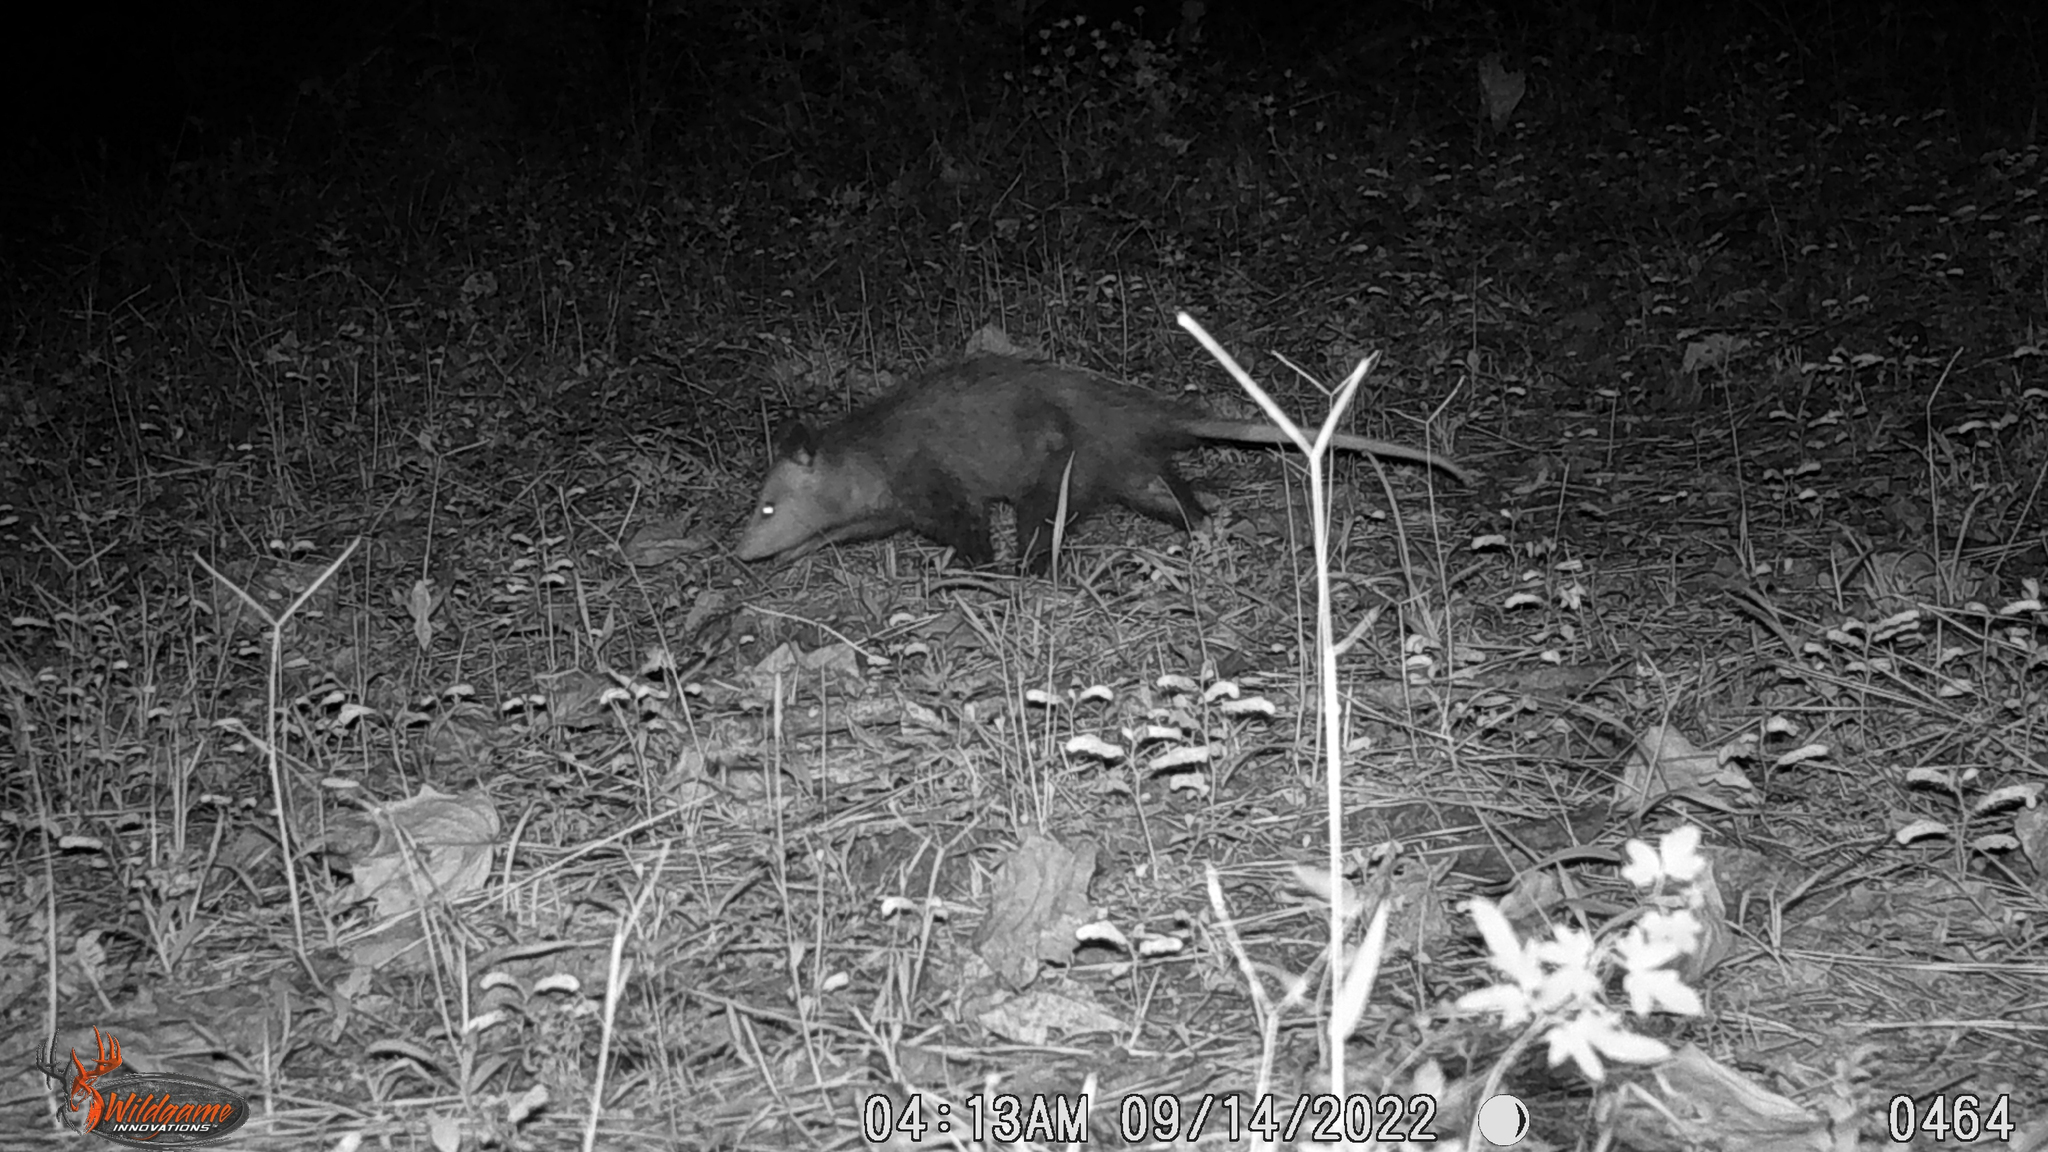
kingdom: Animalia
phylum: Chordata
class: Mammalia
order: Didelphimorphia
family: Didelphidae
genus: Didelphis
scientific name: Didelphis virginiana
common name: Virginia opossum
